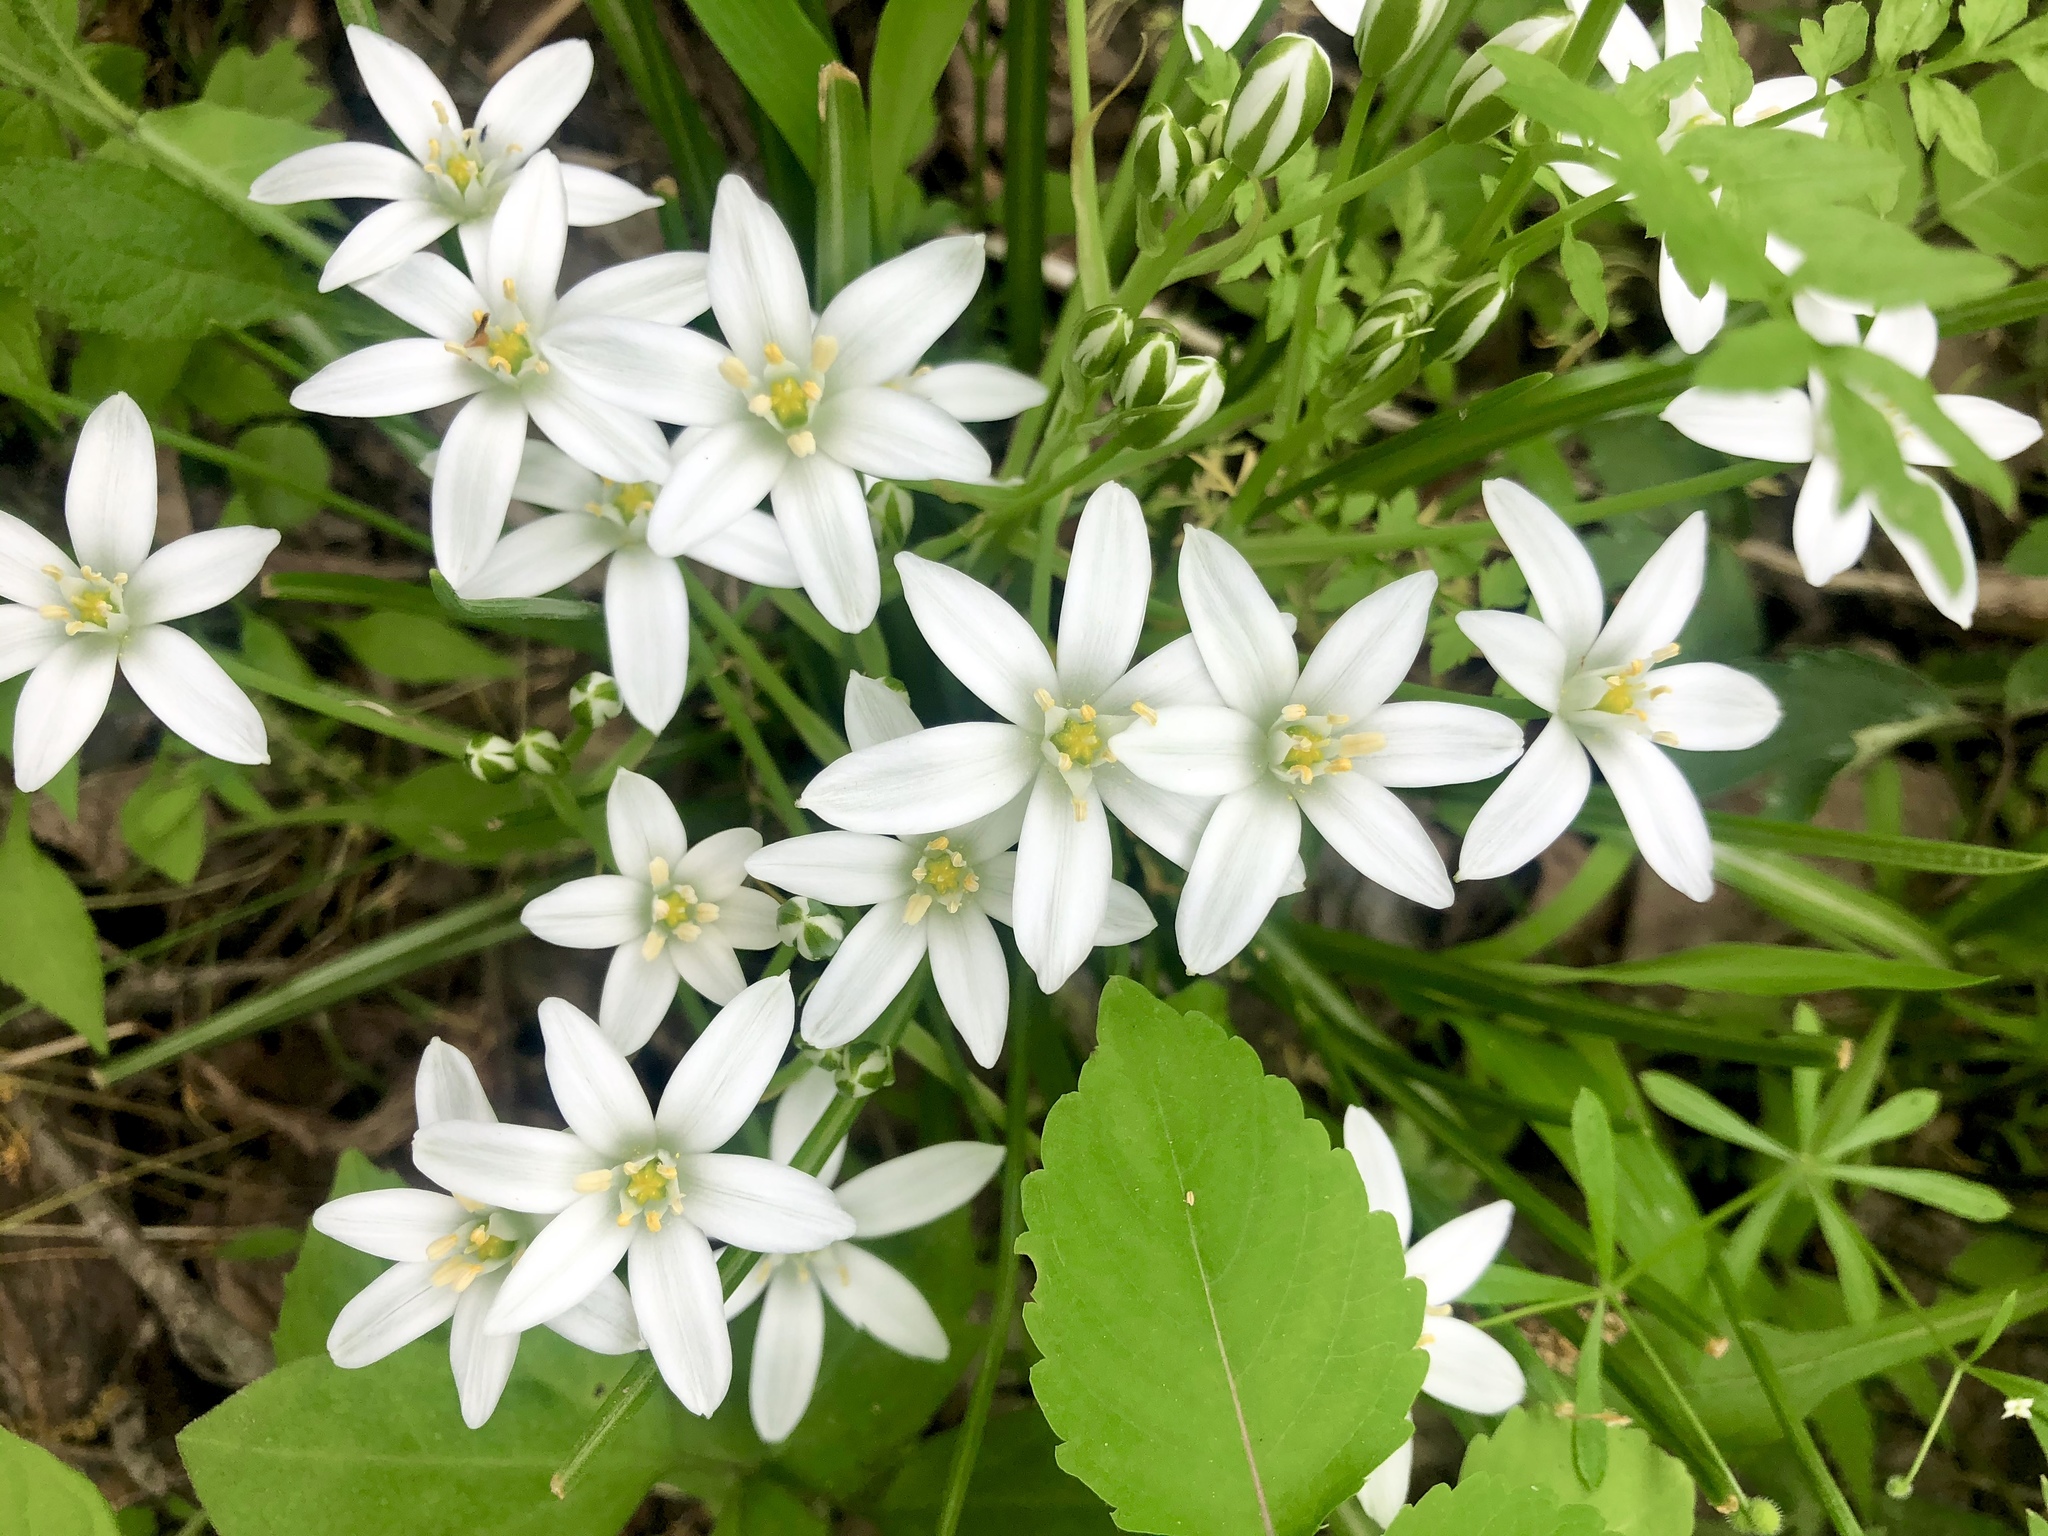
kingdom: Plantae
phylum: Tracheophyta
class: Liliopsida
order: Asparagales
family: Asparagaceae
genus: Ornithogalum
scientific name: Ornithogalum umbellatum
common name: Garden star-of-bethlehem
